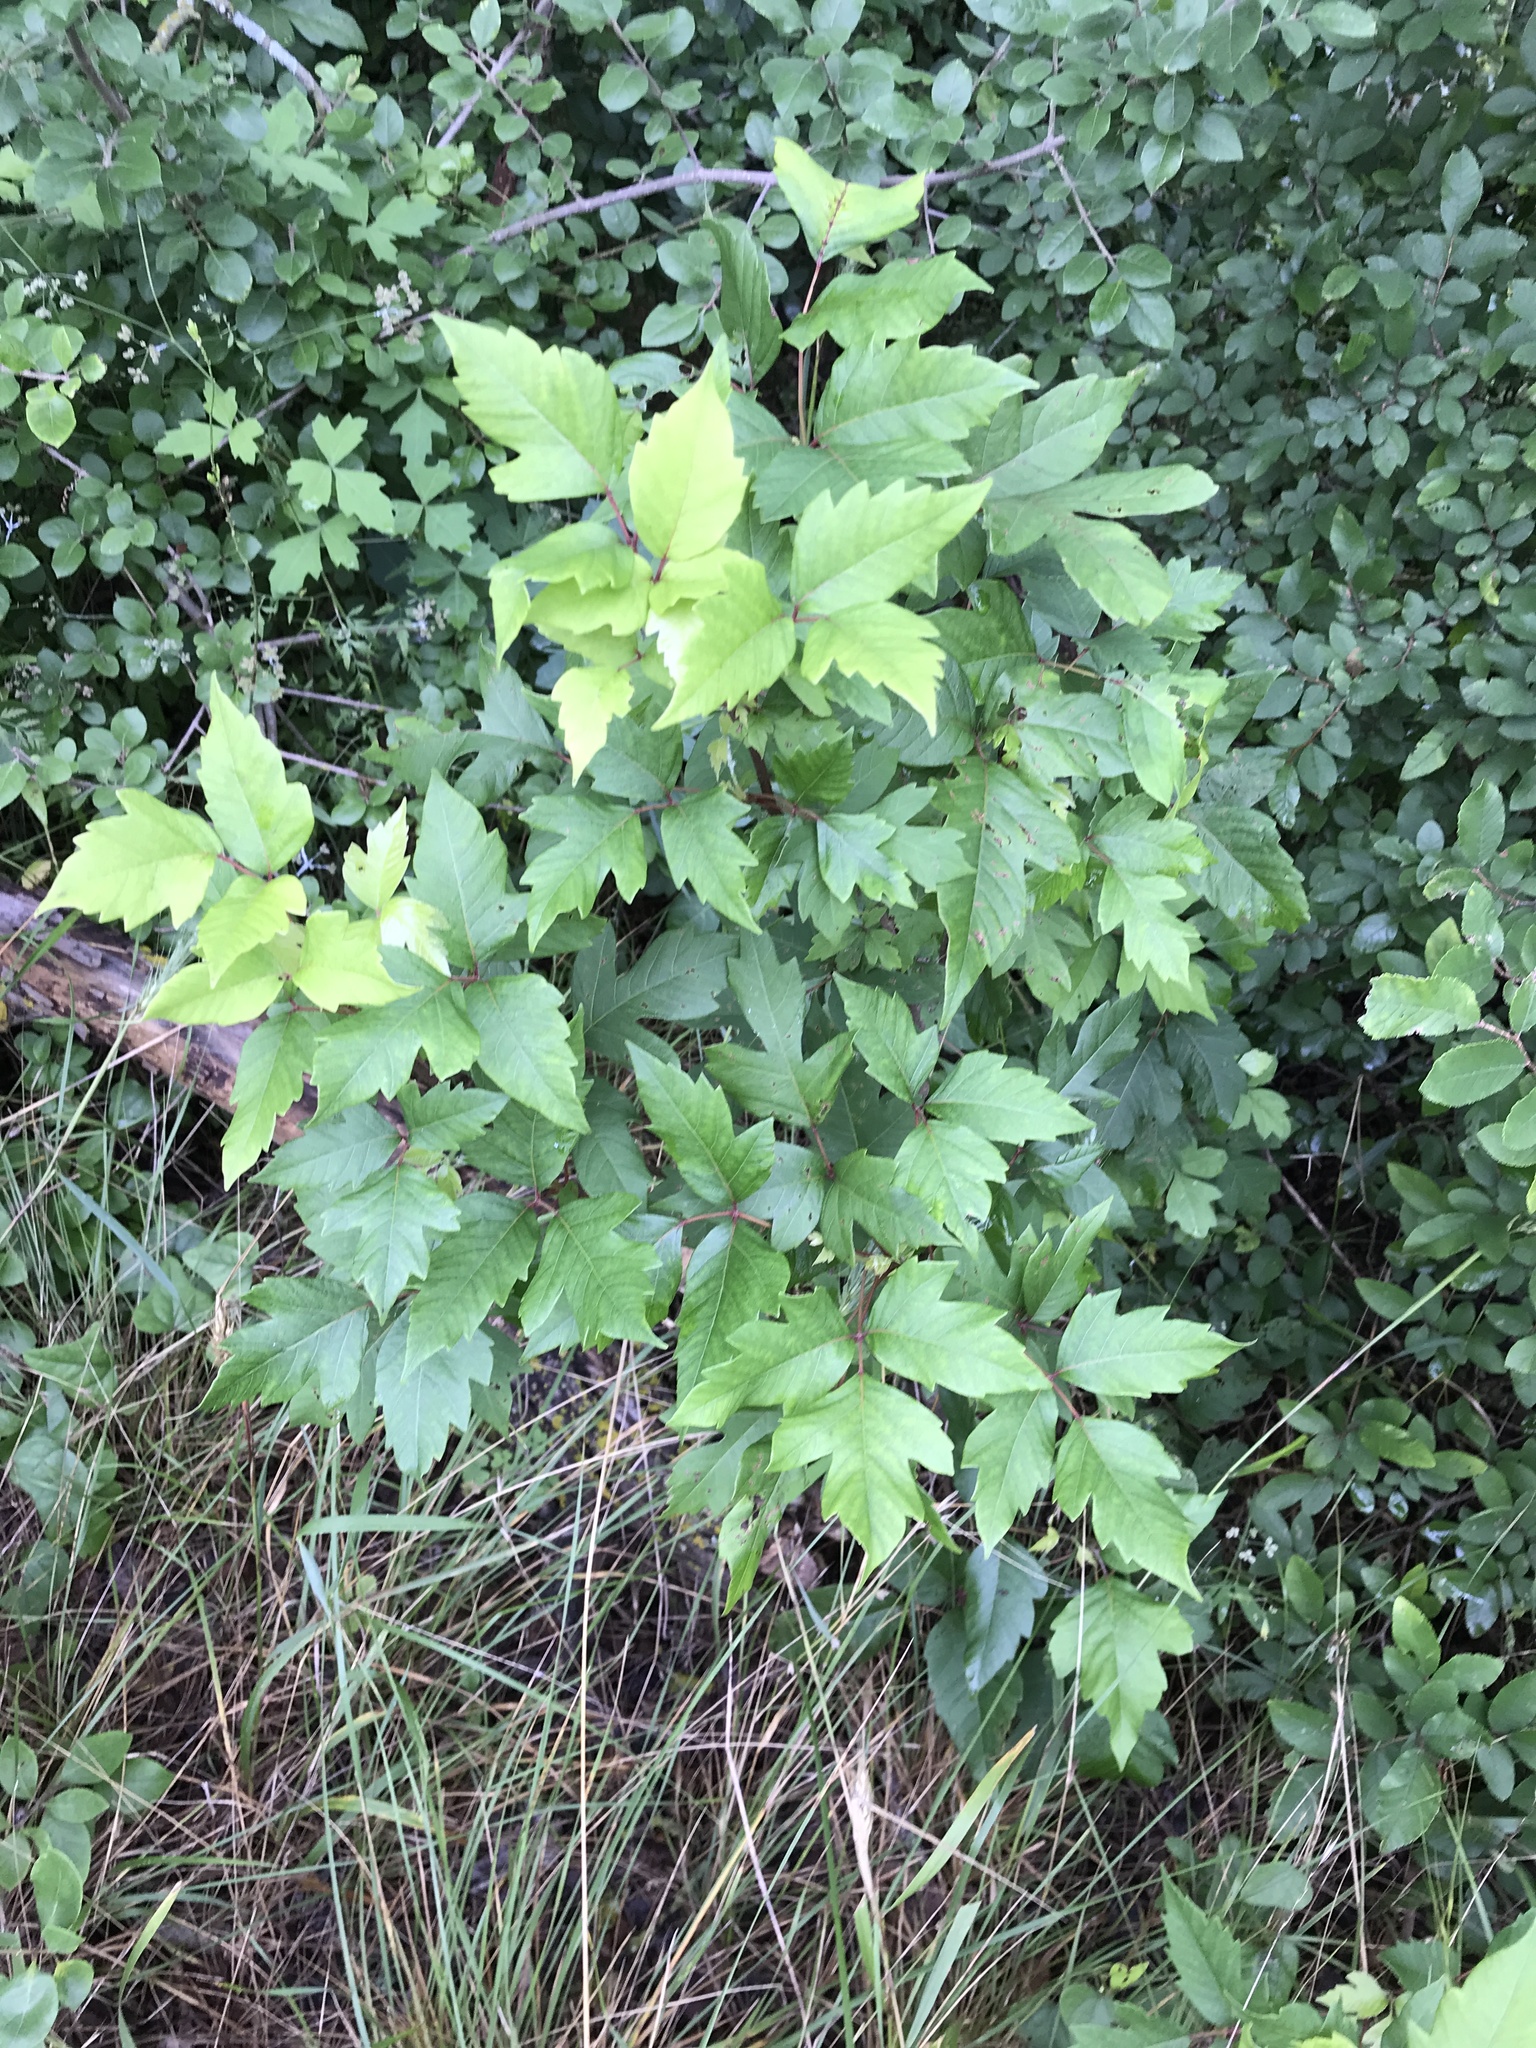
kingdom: Plantae
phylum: Tracheophyta
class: Magnoliopsida
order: Sapindales
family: Anacardiaceae
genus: Toxicodendron
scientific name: Toxicodendron radicans
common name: Poison ivy
